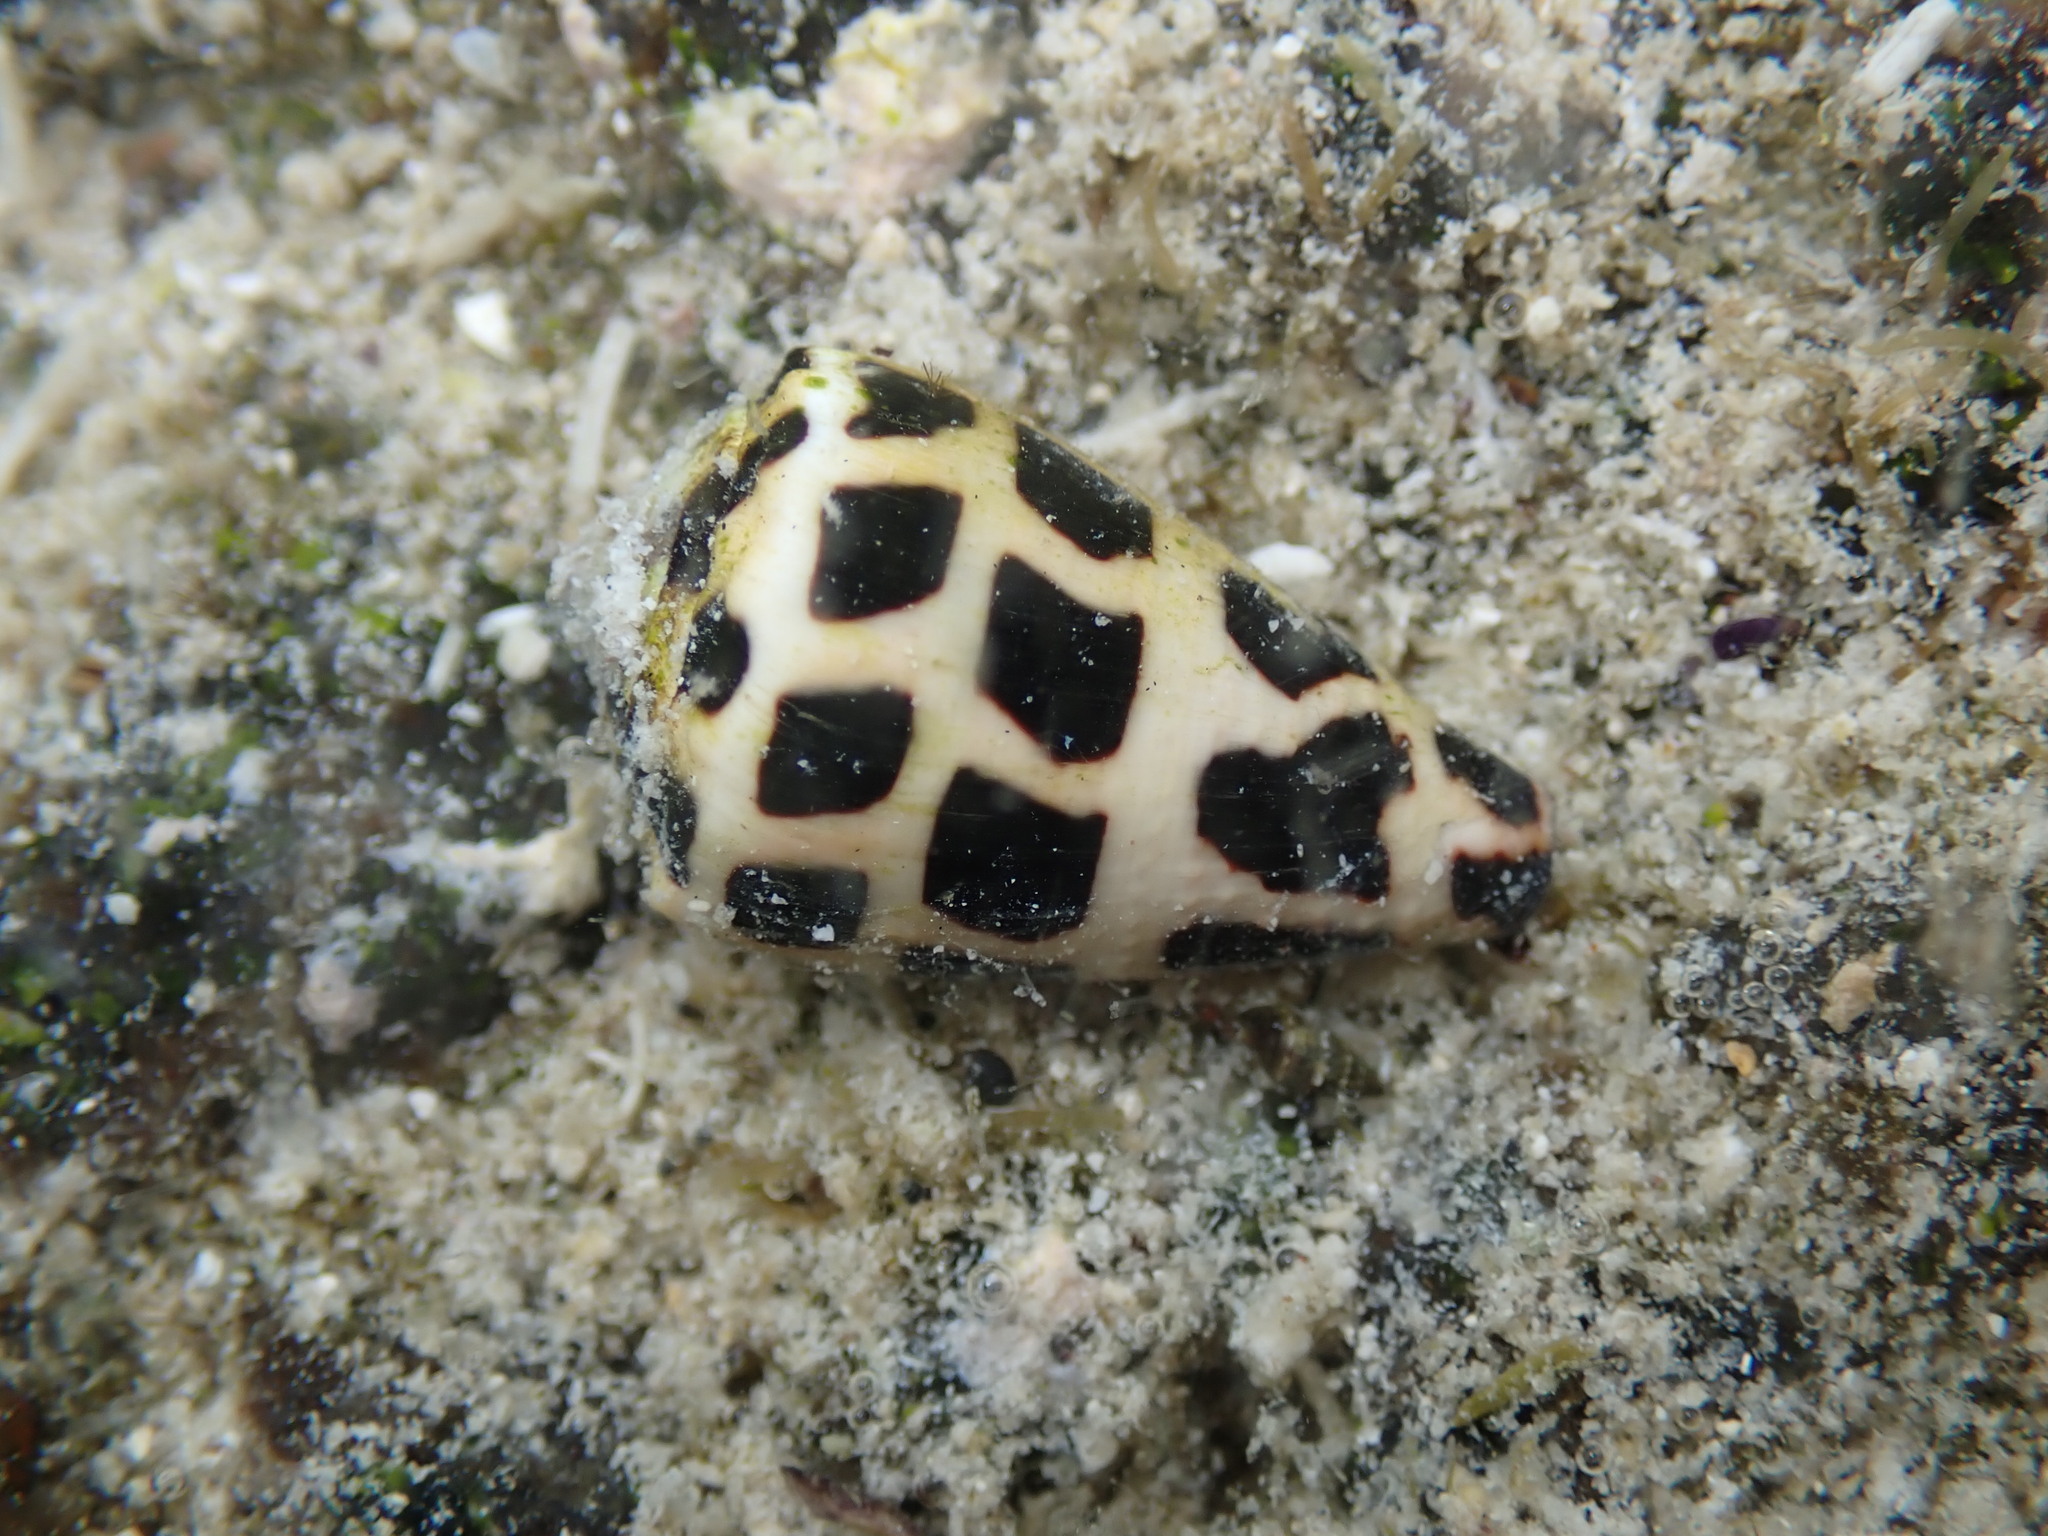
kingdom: Animalia
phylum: Mollusca
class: Gastropoda
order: Neogastropoda
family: Conidae
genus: Conus
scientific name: Conus ebraeus
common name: Hebrew cone
